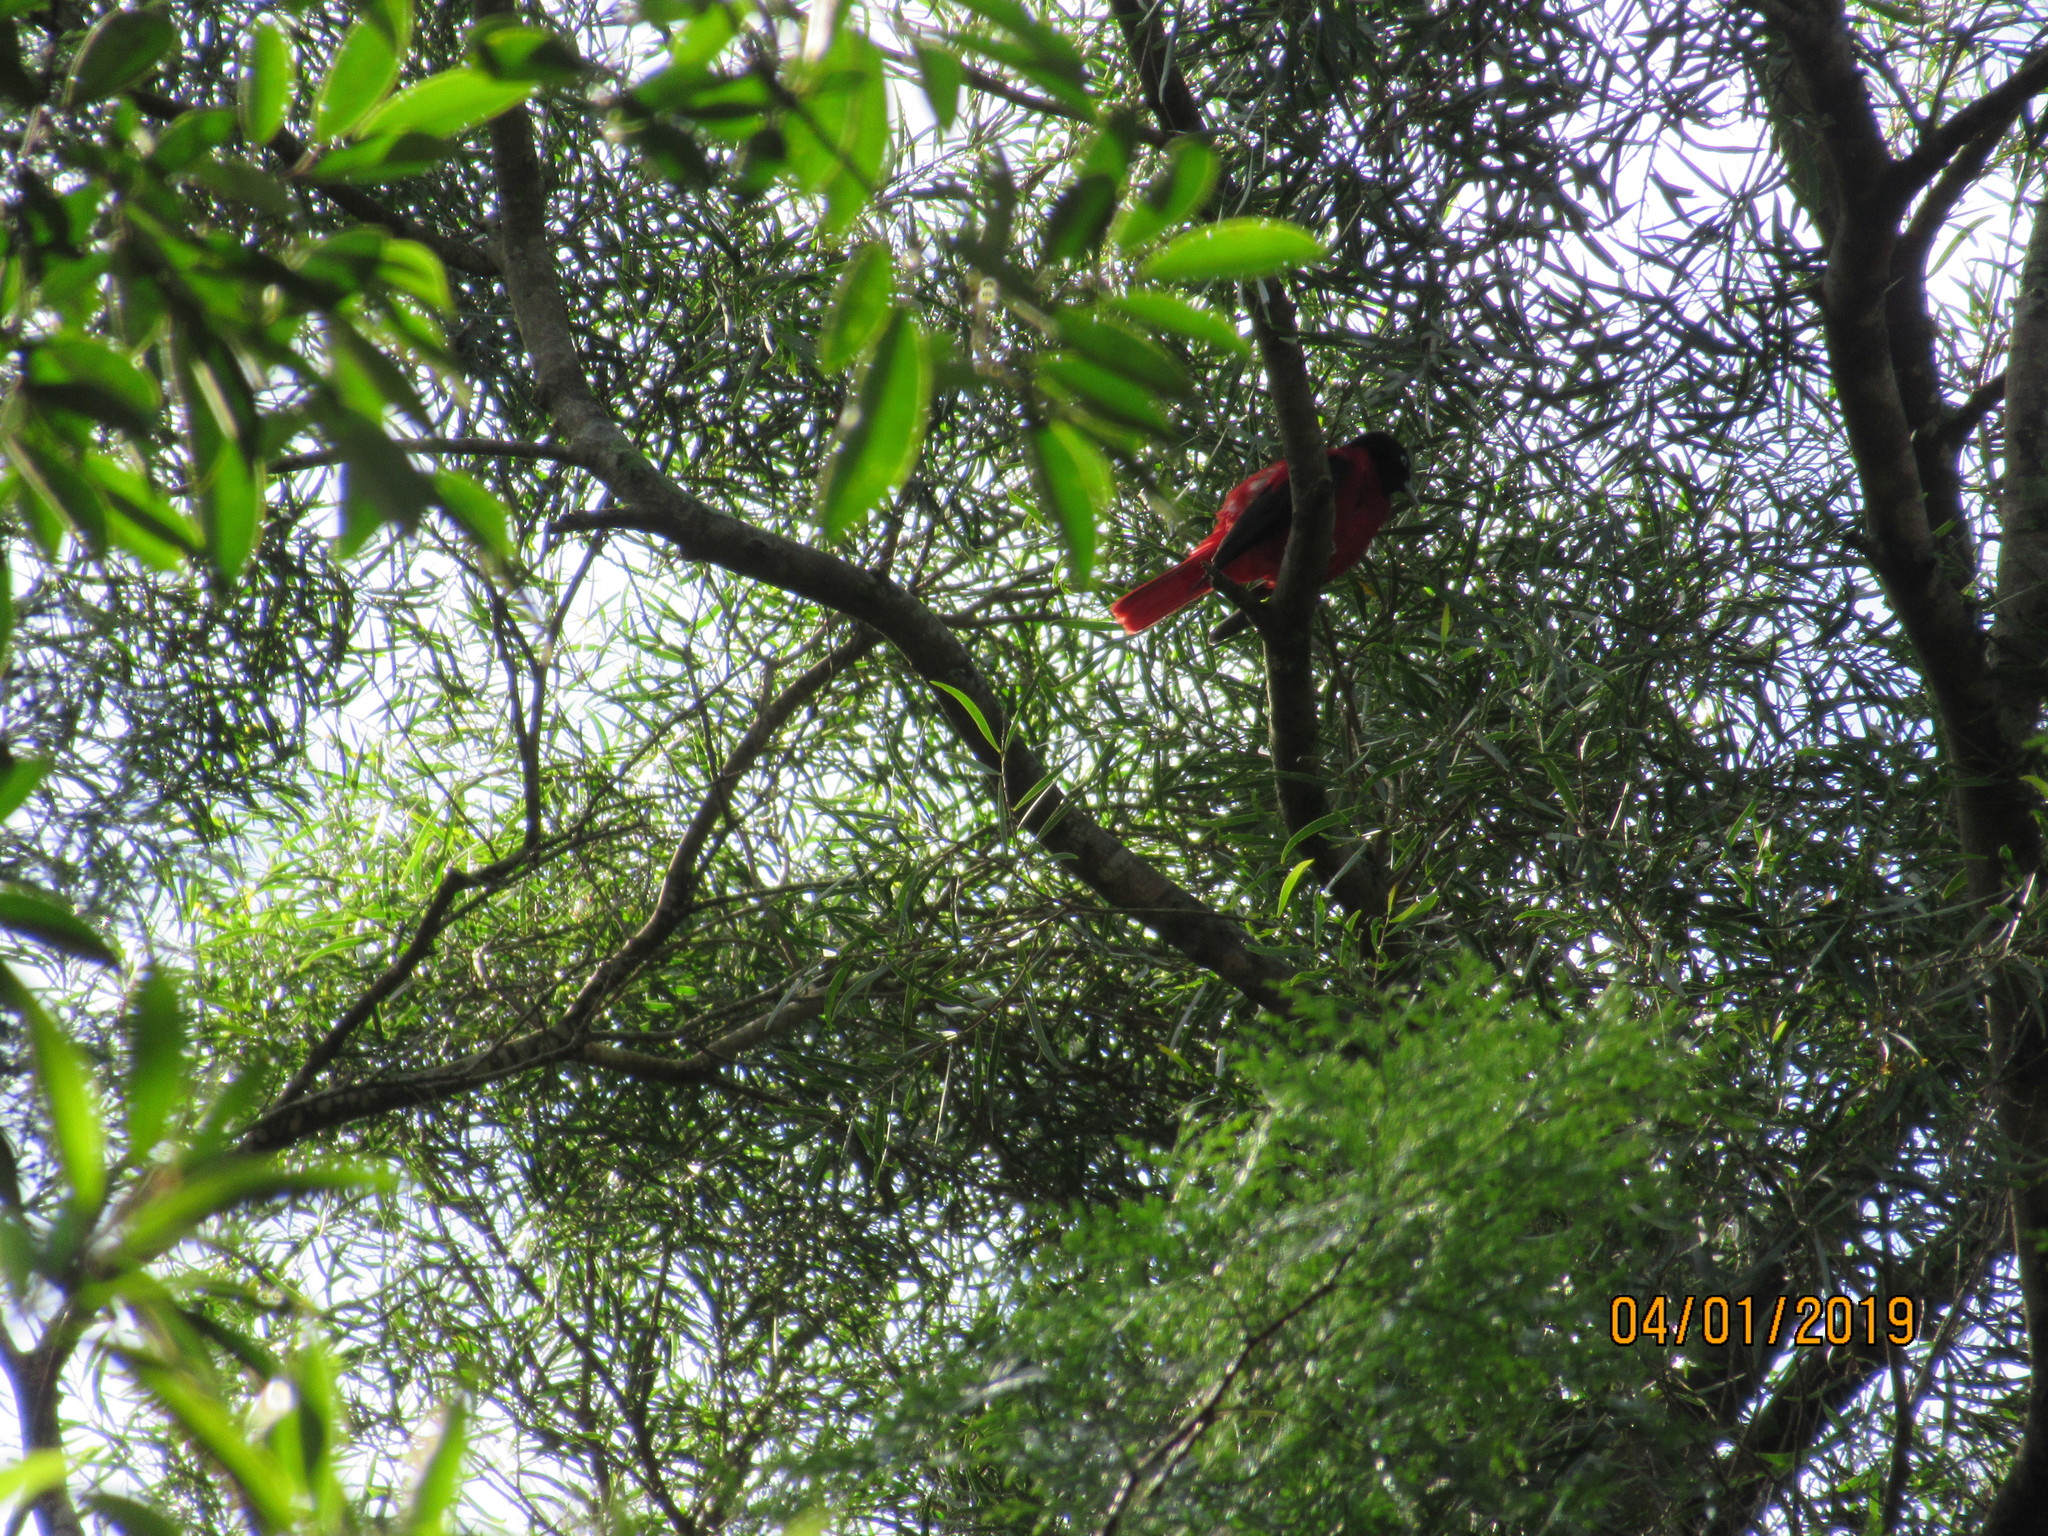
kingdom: Animalia
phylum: Chordata
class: Aves
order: Passeriformes
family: Oriolidae
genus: Oriolus
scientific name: Oriolus traillii
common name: Maroon oriole
